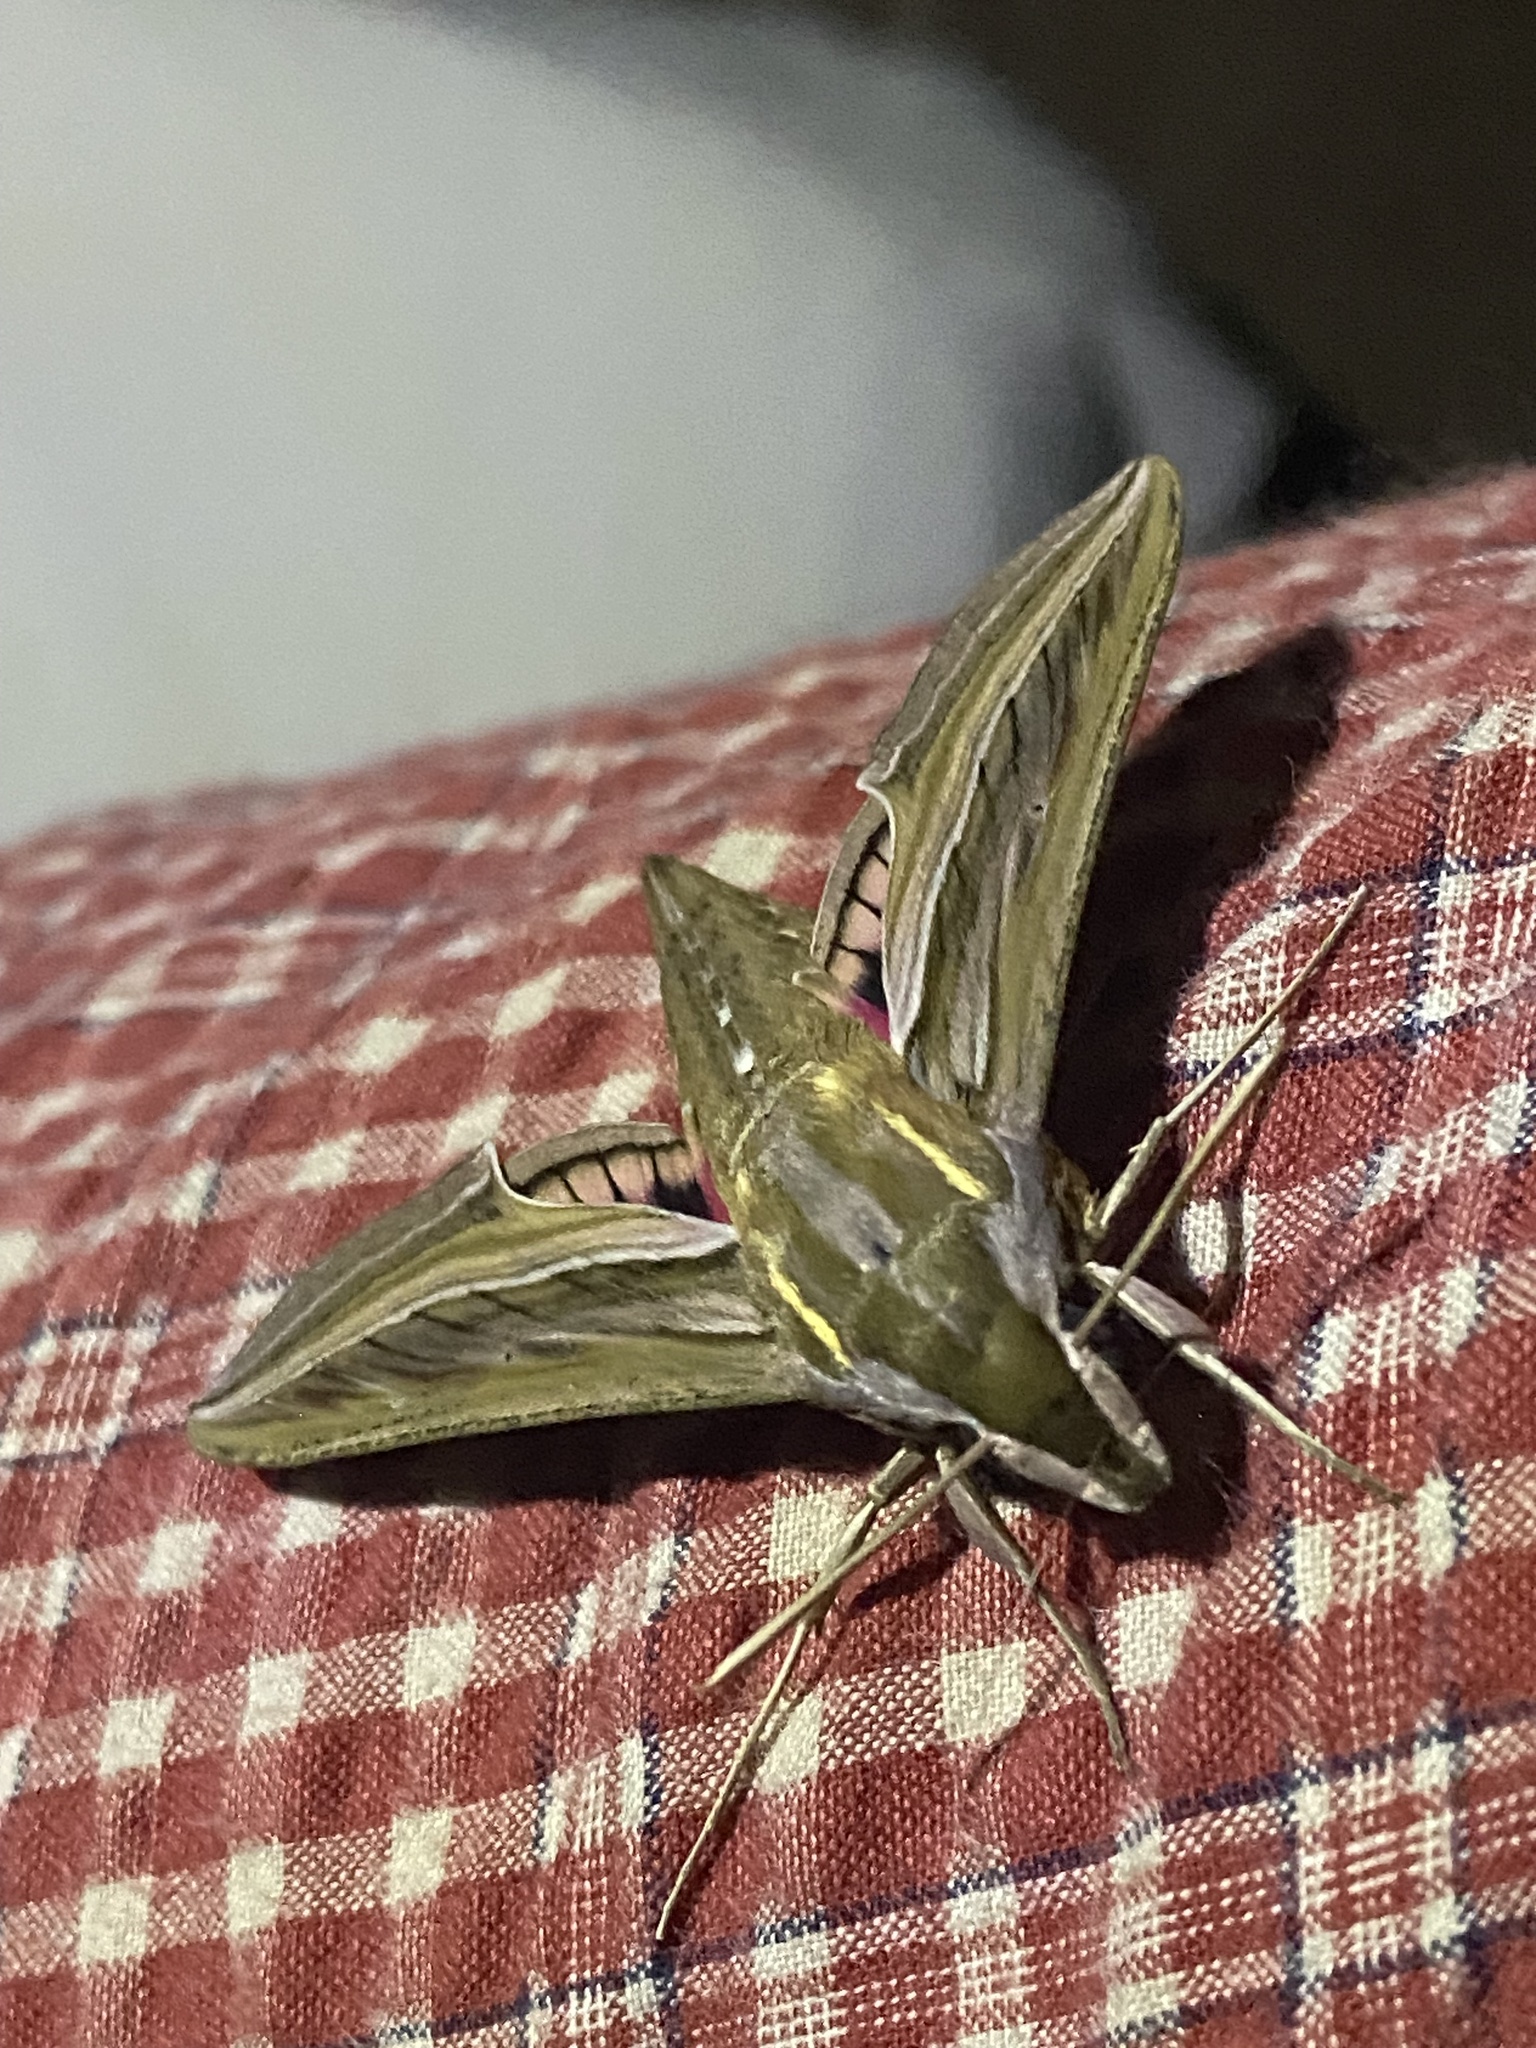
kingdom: Animalia
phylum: Arthropoda
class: Insecta
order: Lepidoptera
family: Sphingidae
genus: Hippotion
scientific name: Hippotion celerio
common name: Silver-striped hawk-moth
